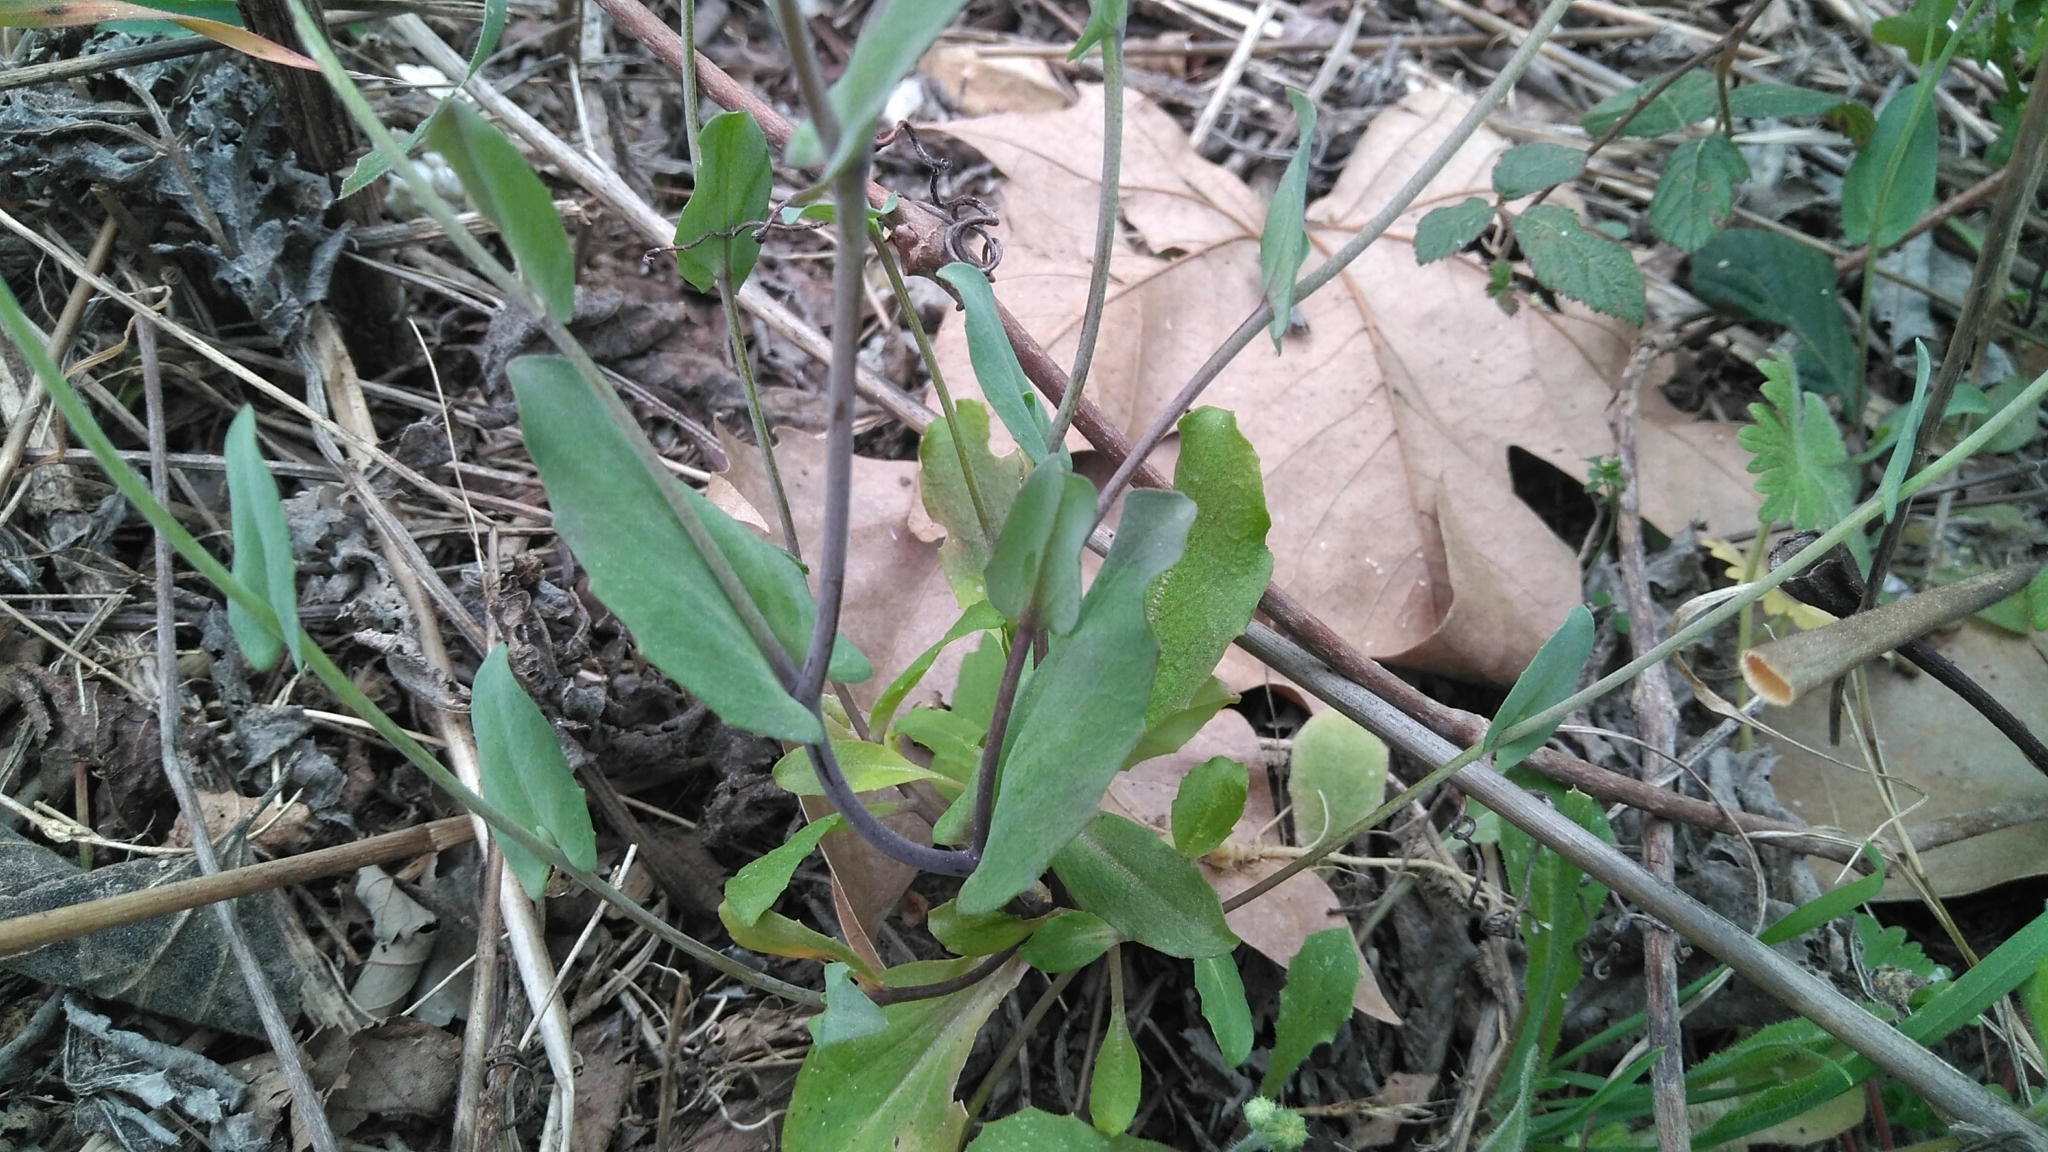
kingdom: Plantae
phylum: Tracheophyta
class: Magnoliopsida
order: Brassicales
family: Brassicaceae
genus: Noccaea
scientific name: Noccaea perfoliata
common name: Perfoliate pennycress
